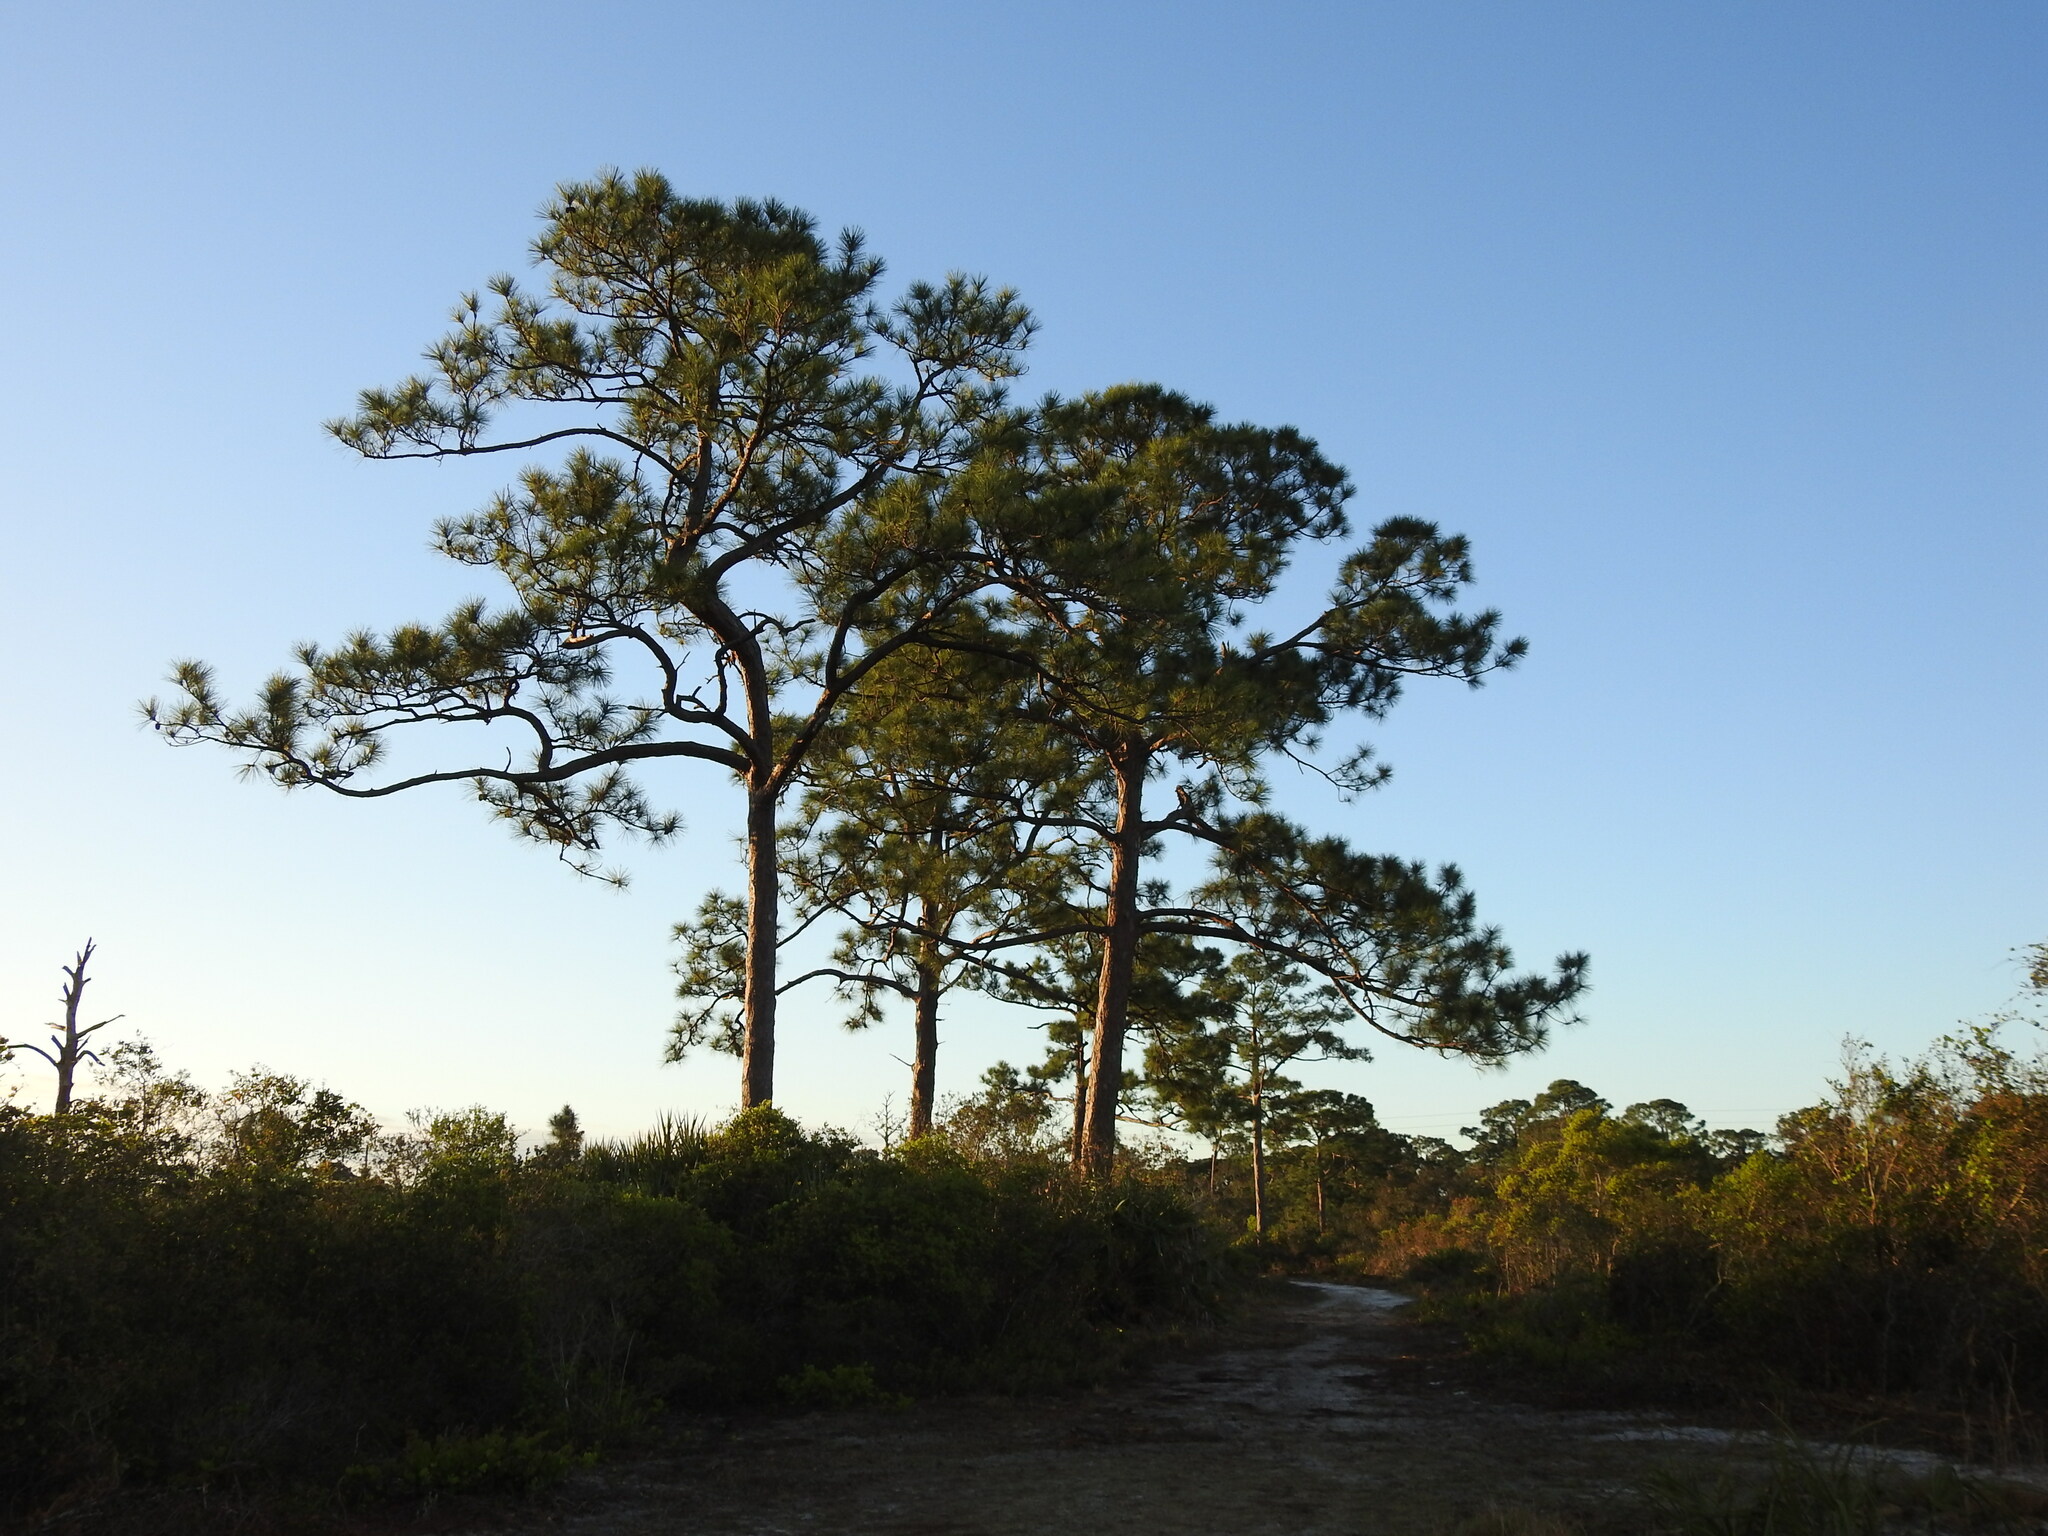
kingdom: Plantae
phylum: Tracheophyta
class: Pinopsida
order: Pinales
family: Pinaceae
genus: Pinus
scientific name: Pinus elliottii
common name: Slash pine
